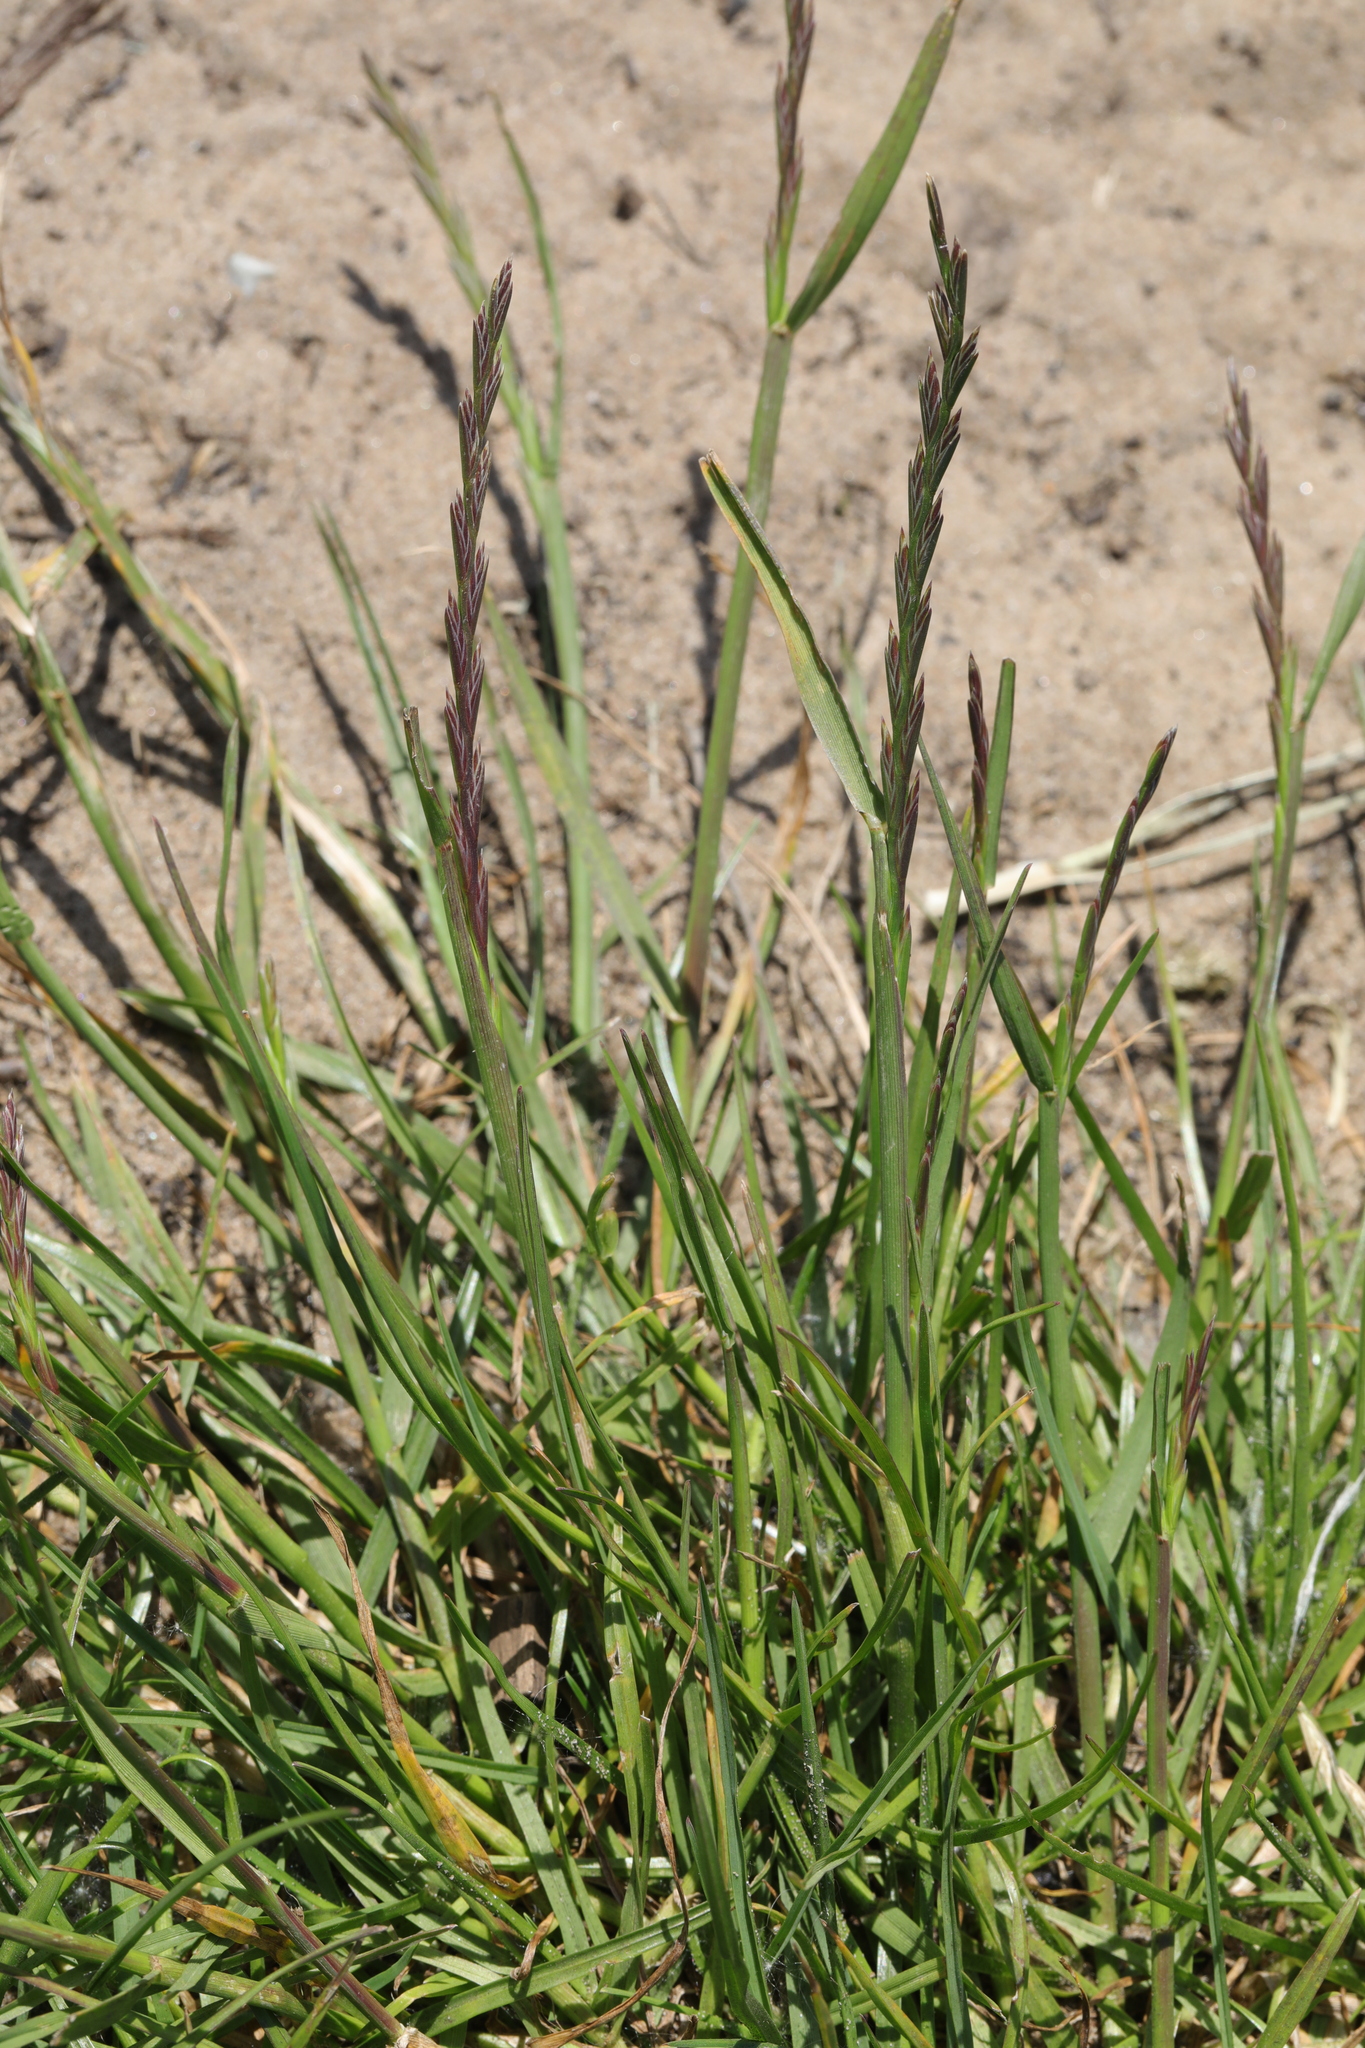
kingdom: Plantae
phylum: Tracheophyta
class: Liliopsida
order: Poales
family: Poaceae
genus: Lolium
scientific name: Lolium perenne
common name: Perennial ryegrass
